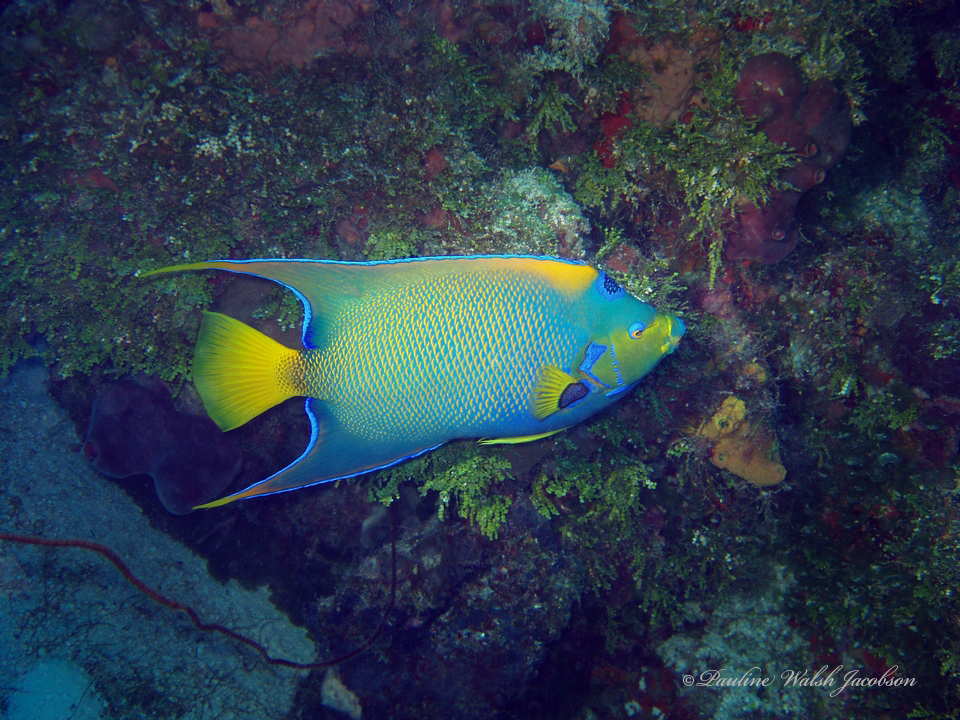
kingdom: Animalia
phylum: Chordata
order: Perciformes
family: Pomacanthidae
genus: Holacanthus
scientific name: Holacanthus ciliaris
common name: Queen angelfish
